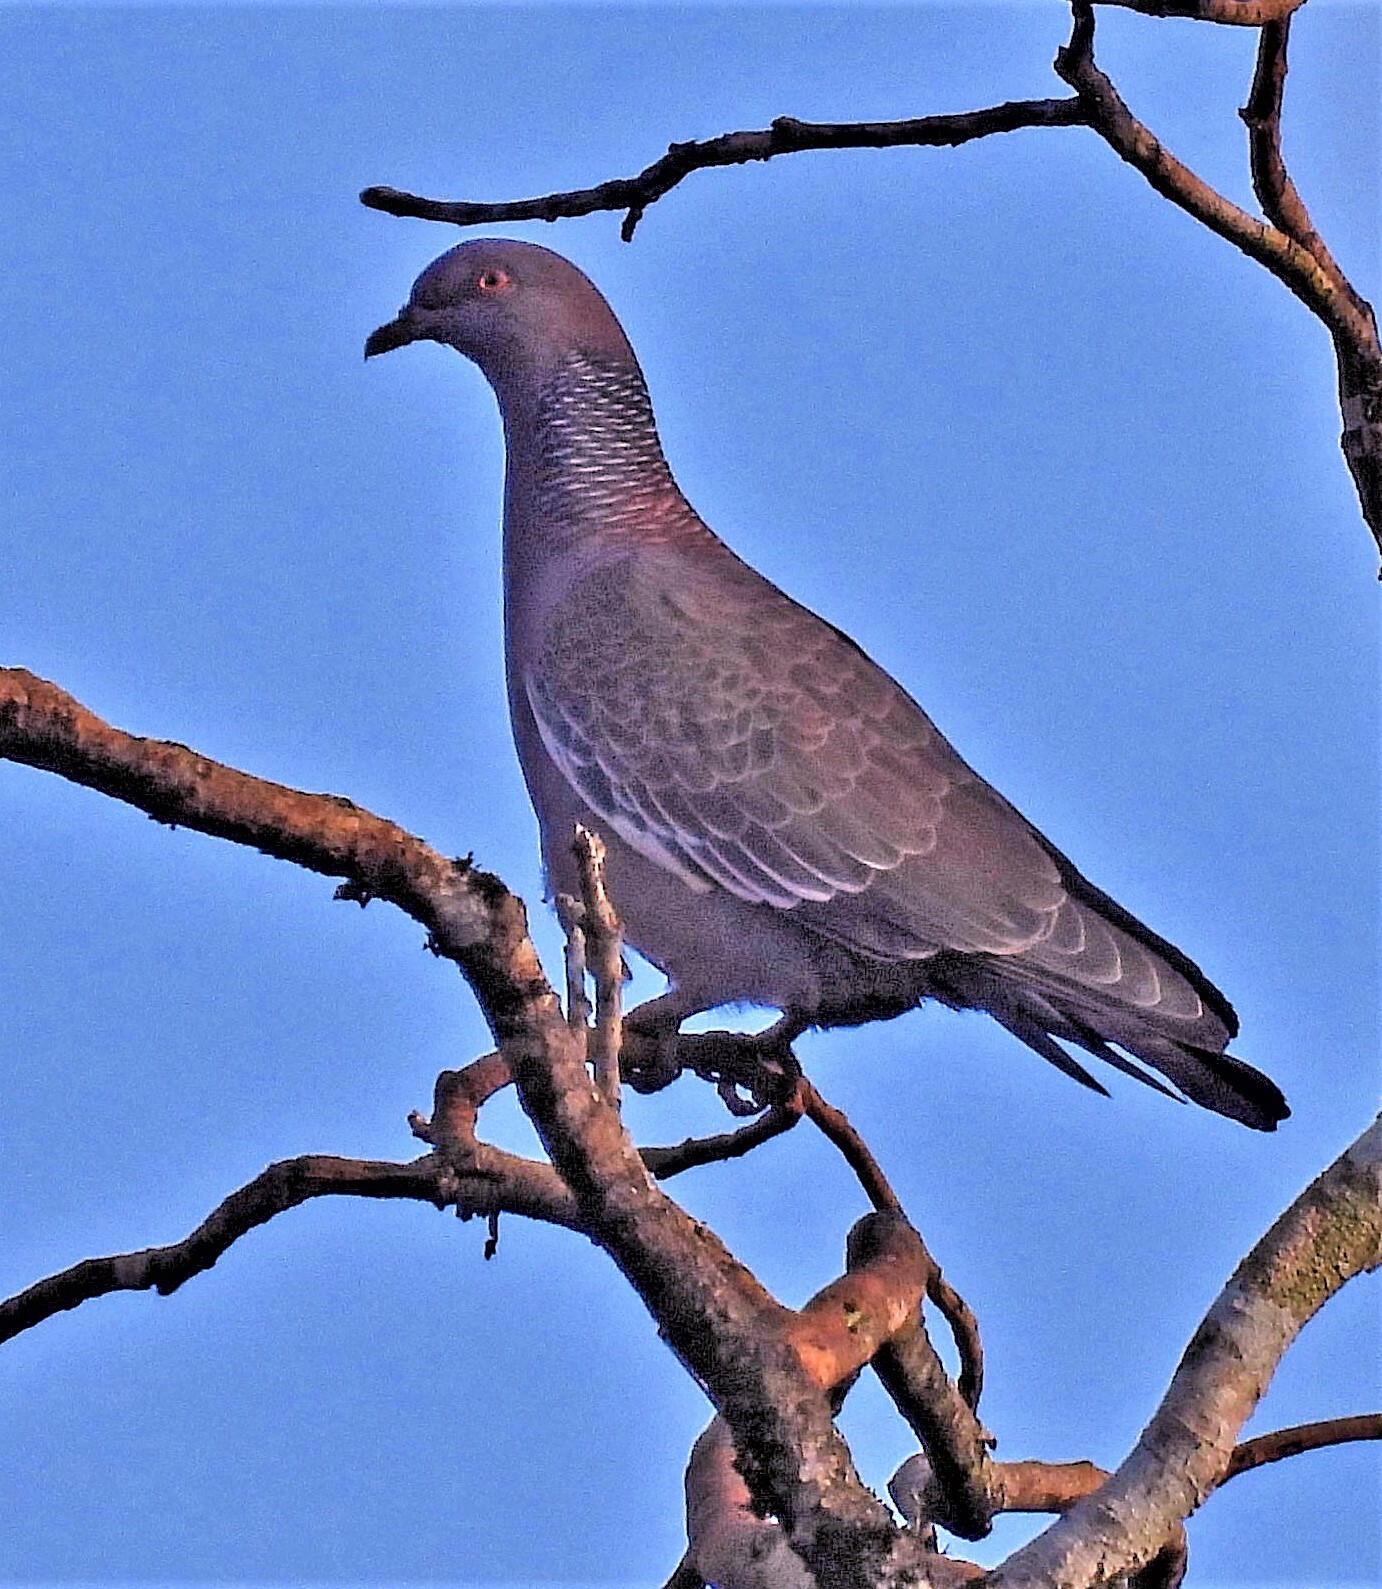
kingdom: Animalia
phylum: Chordata
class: Aves
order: Columbiformes
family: Columbidae
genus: Patagioenas
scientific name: Patagioenas picazuro
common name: Picazuro pigeon
